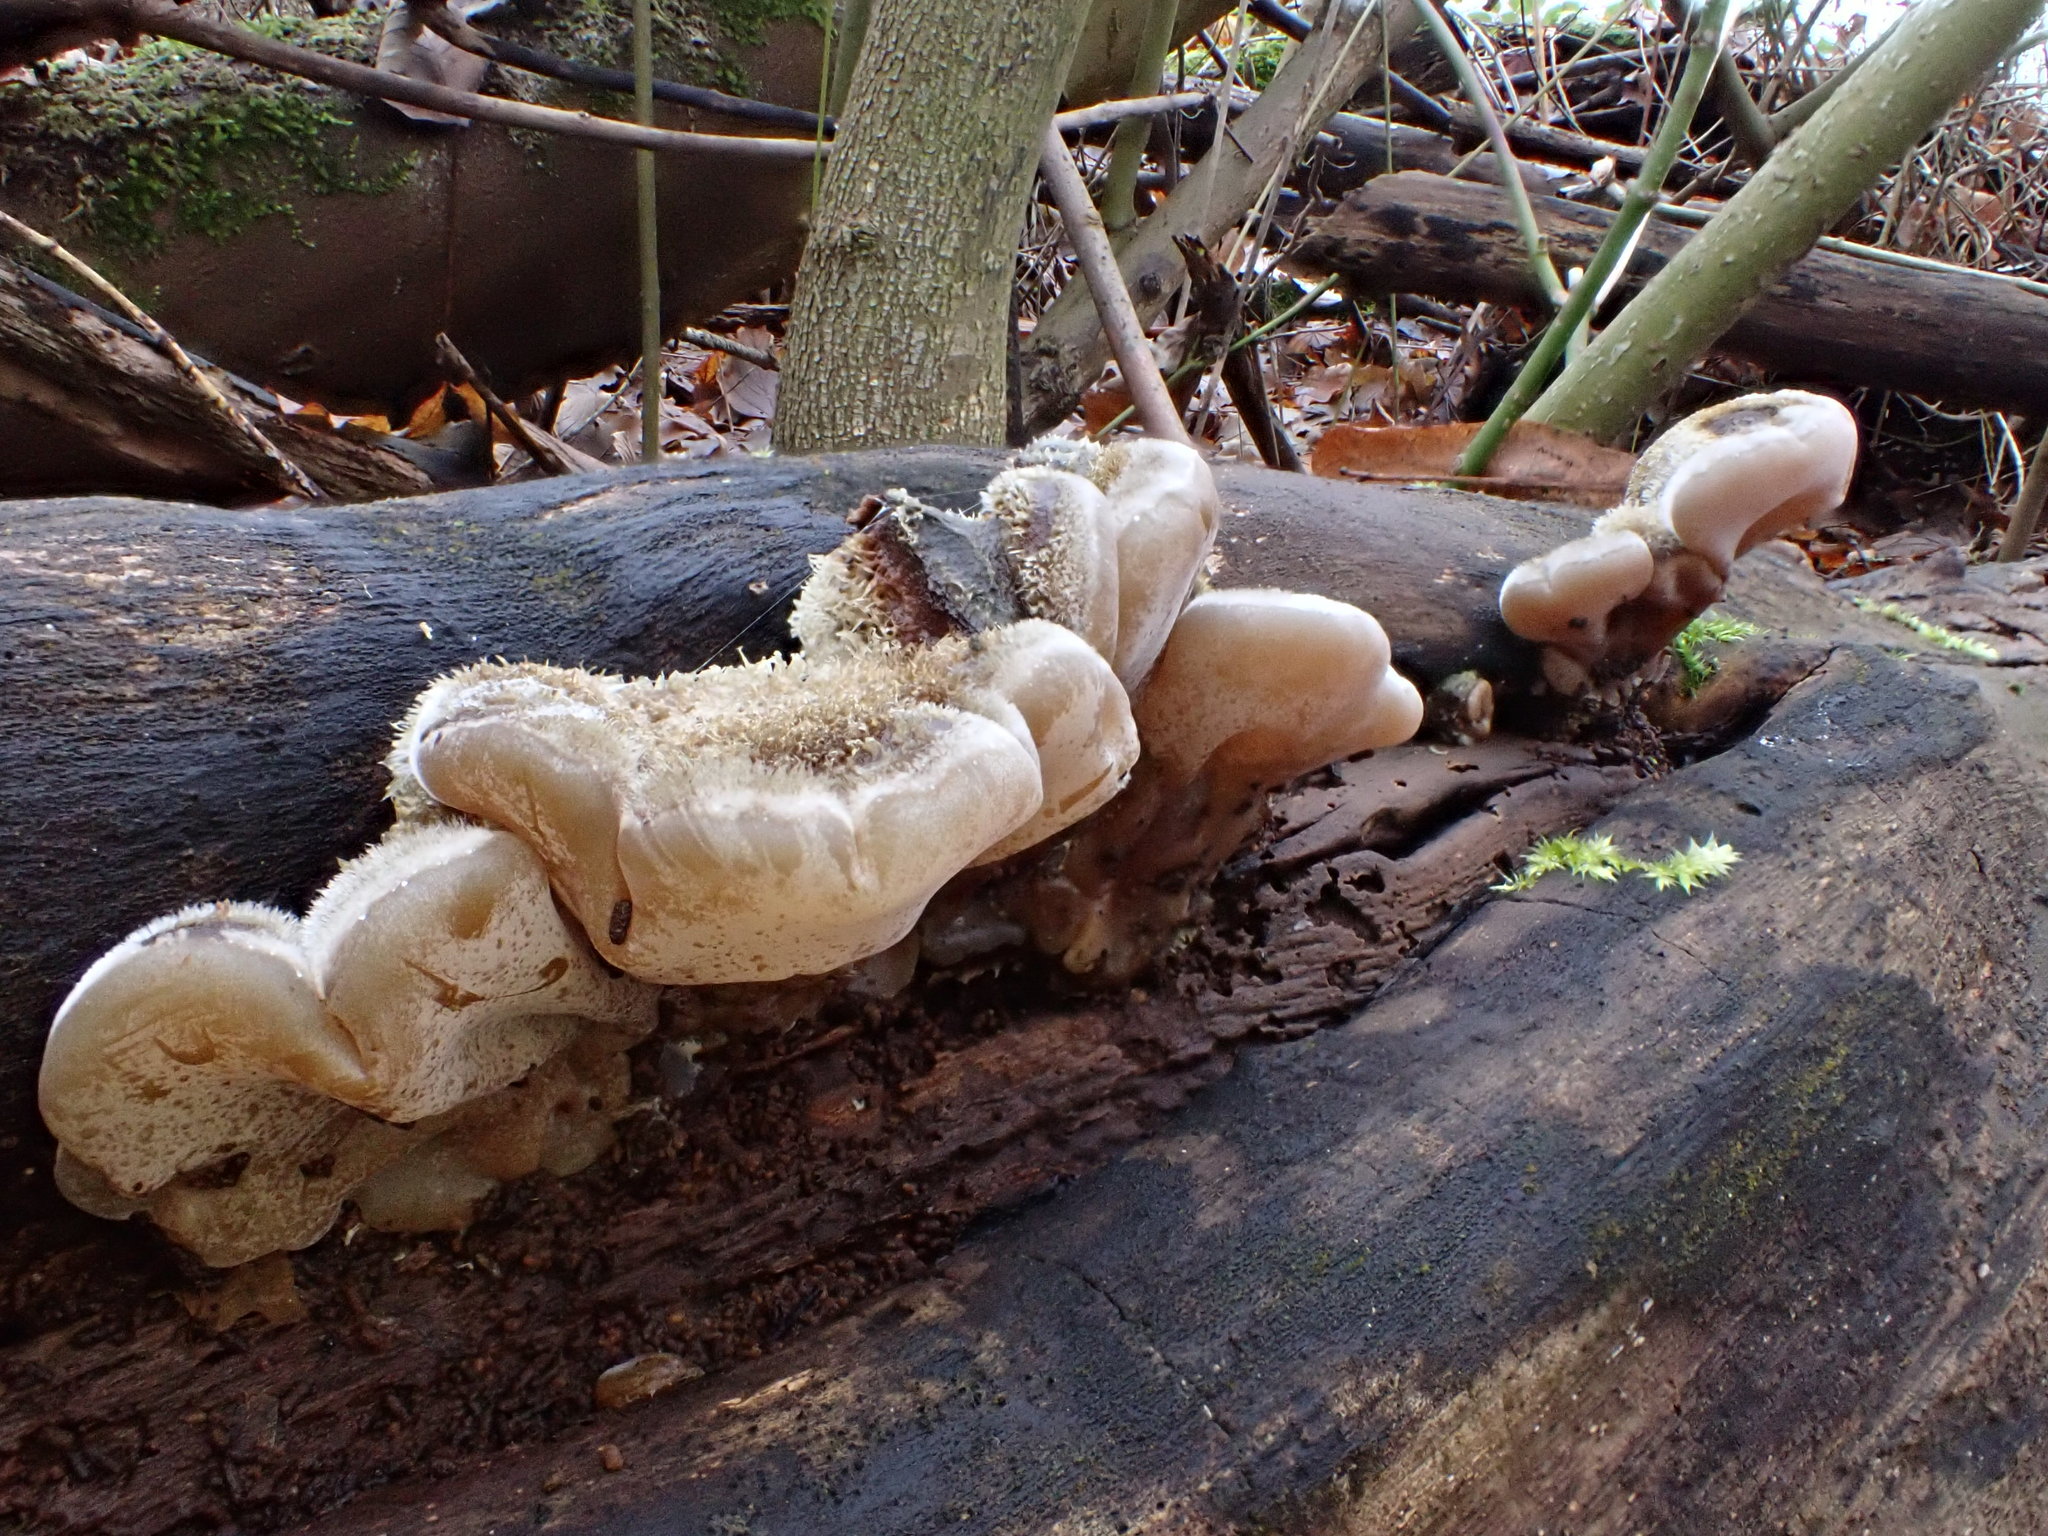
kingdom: Fungi
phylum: Basidiomycota
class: Agaricomycetes
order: Auriculariales
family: Auriculariaceae
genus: Auricularia
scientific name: Auricularia mesenterica
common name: Tripe fungus
